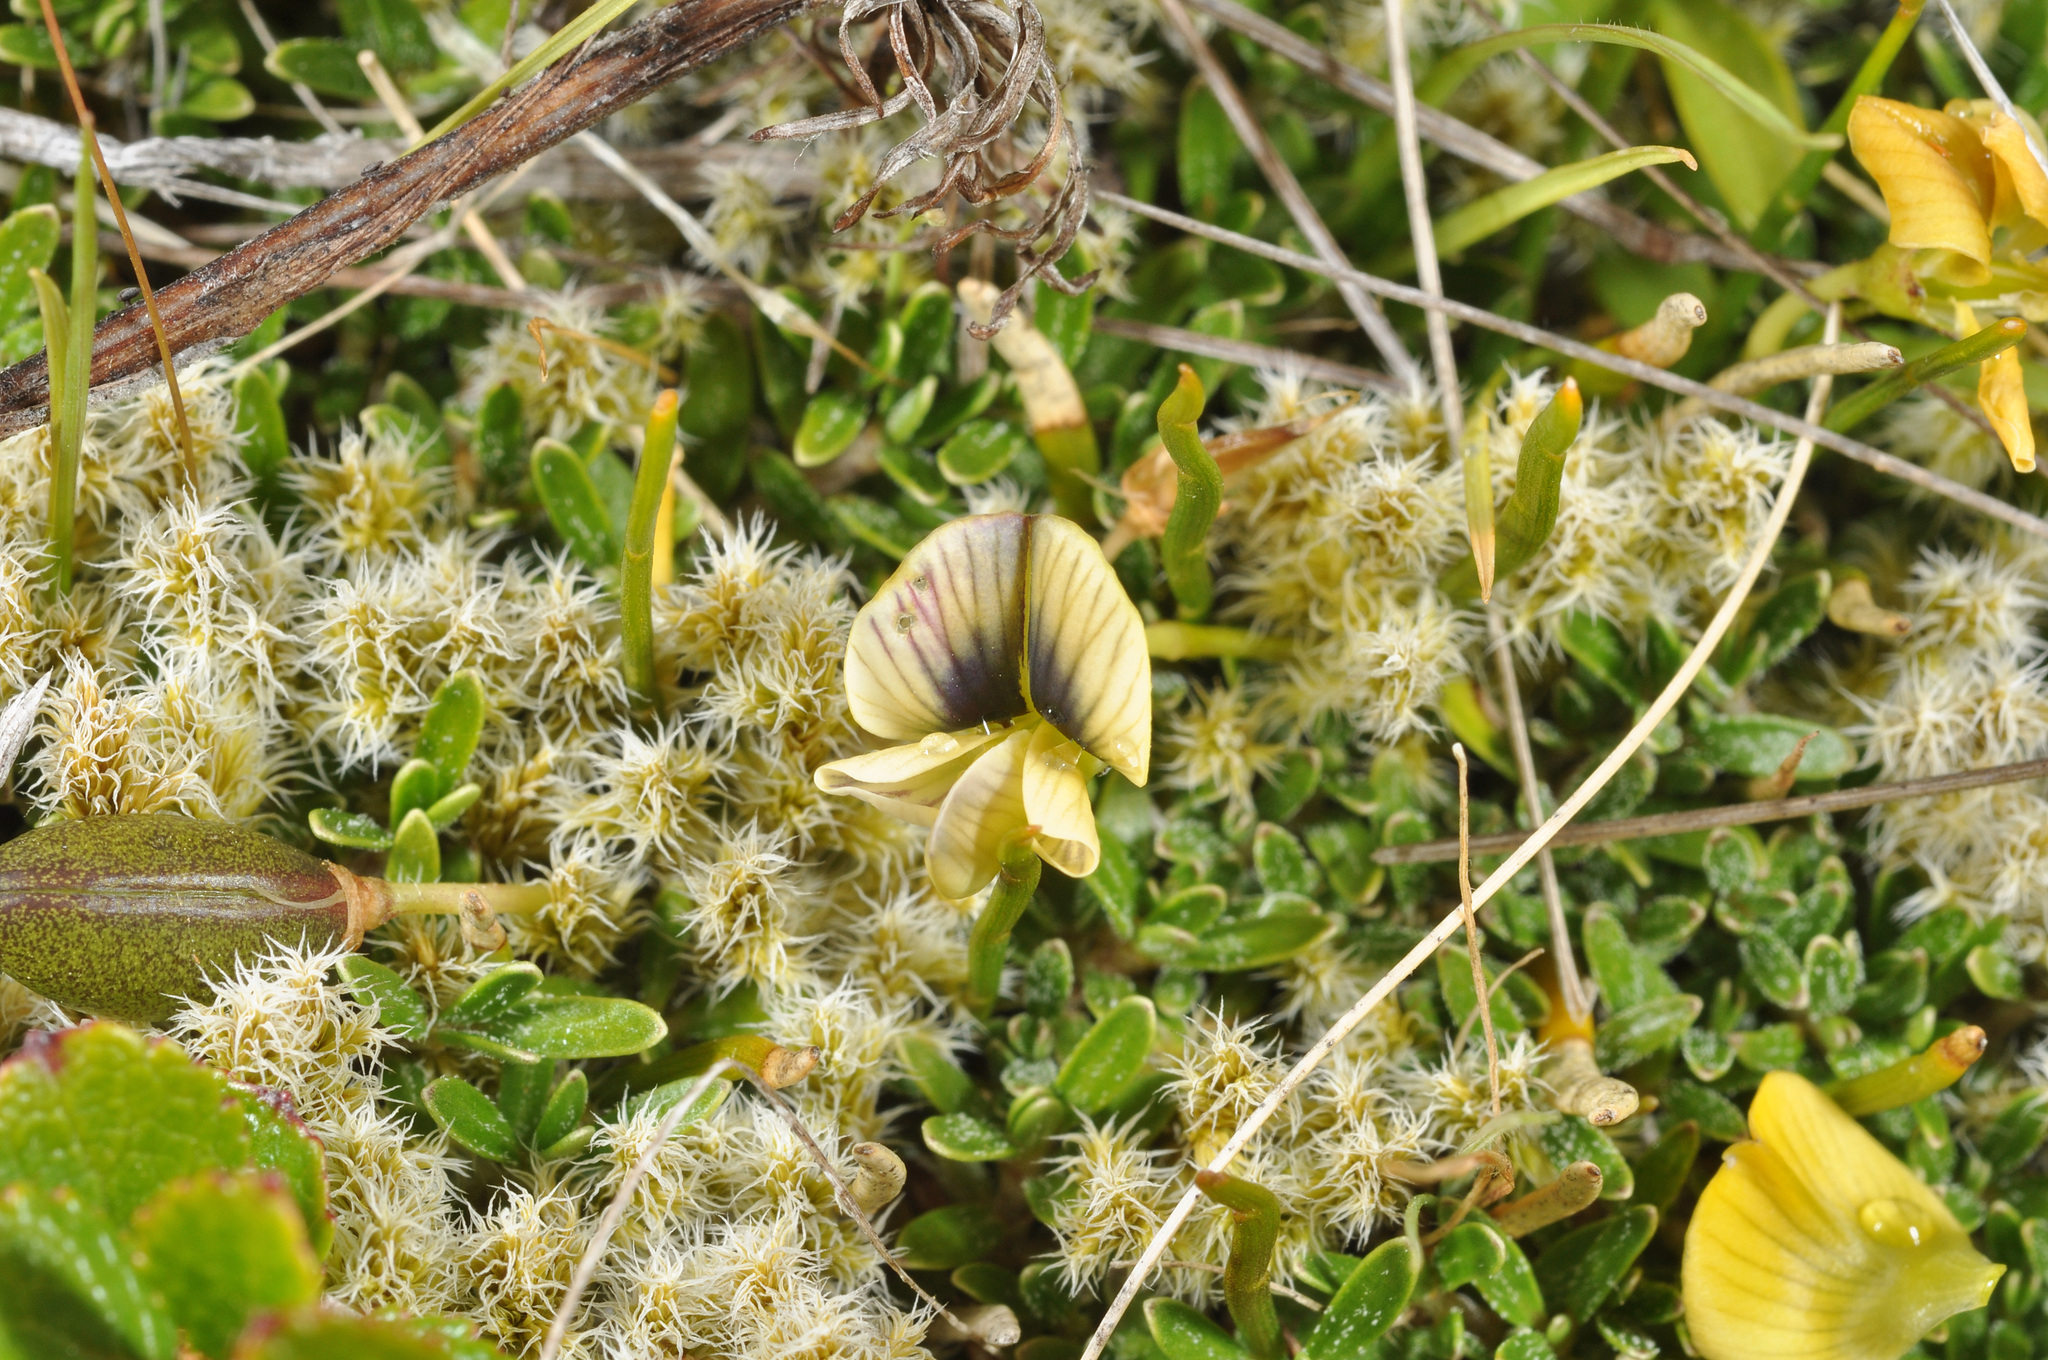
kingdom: Plantae
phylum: Tracheophyta
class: Magnoliopsida
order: Fabales
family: Fabaceae
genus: Carmichaelia
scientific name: Carmichaelia uniflora
